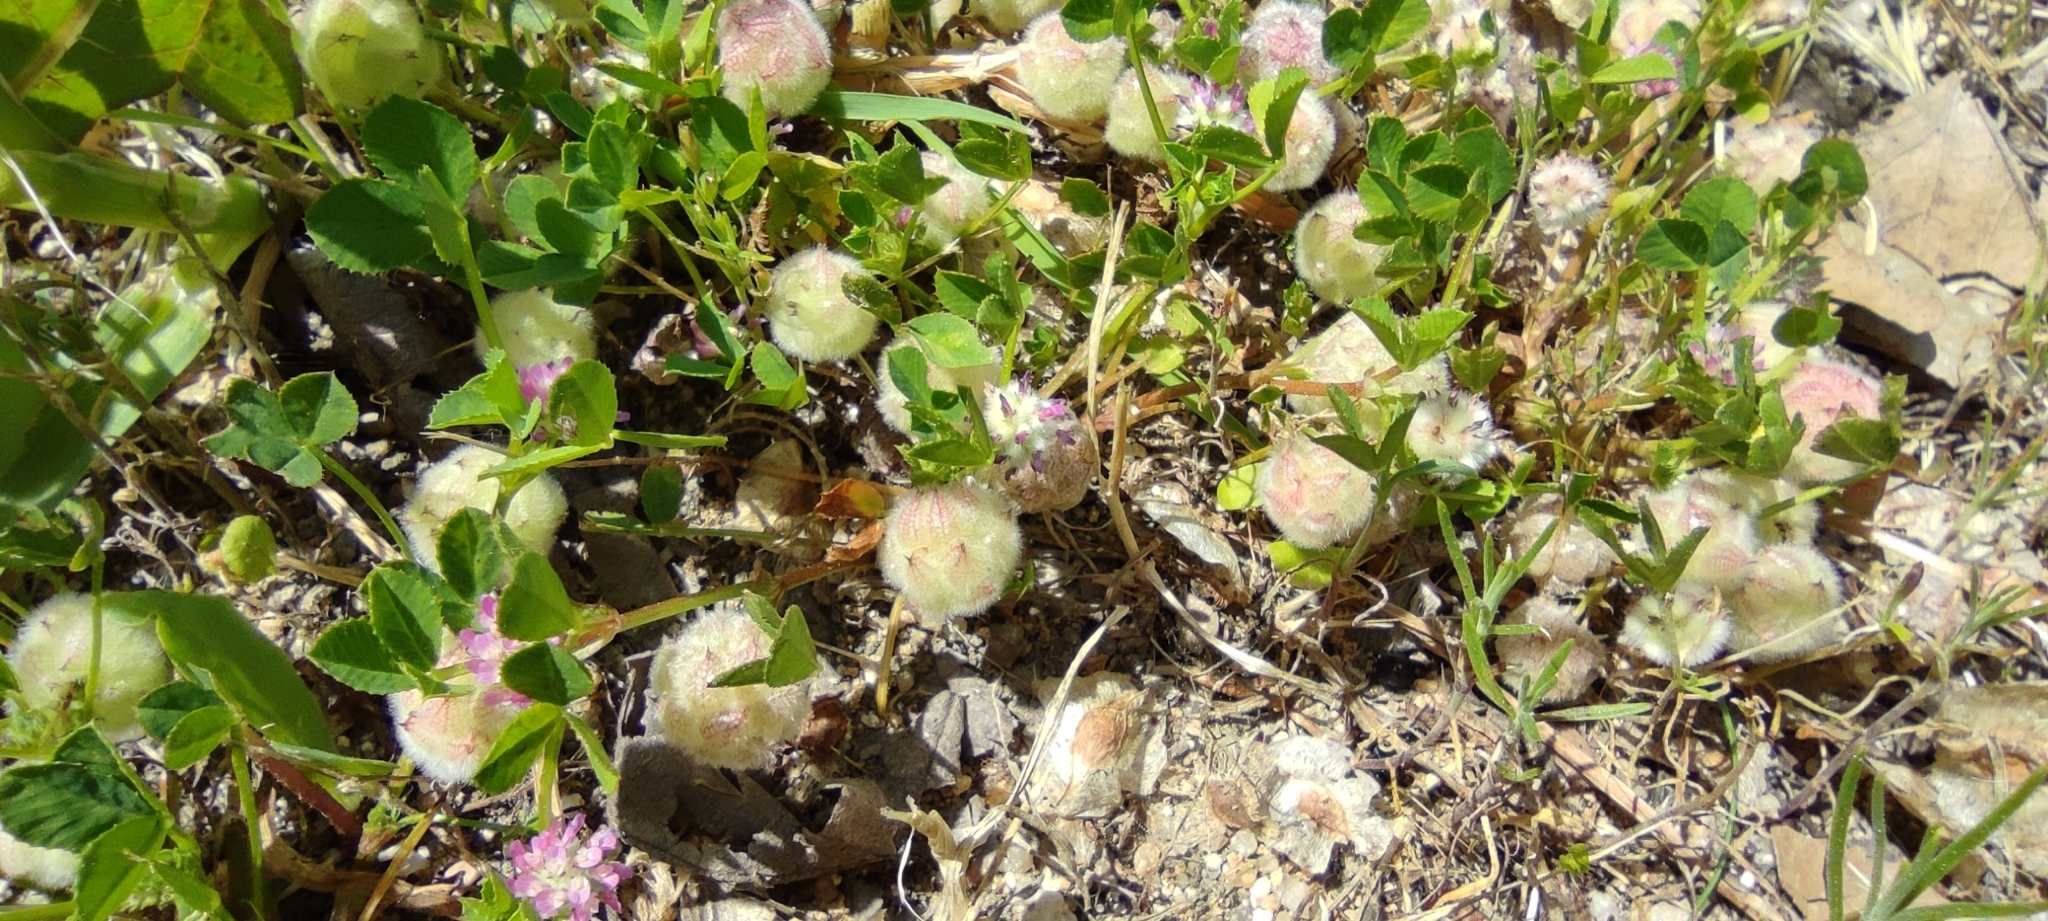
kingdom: Plantae
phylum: Tracheophyta
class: Magnoliopsida
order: Fabales
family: Fabaceae
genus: Trifolium
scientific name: Trifolium tomentosum
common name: Woolly clover
